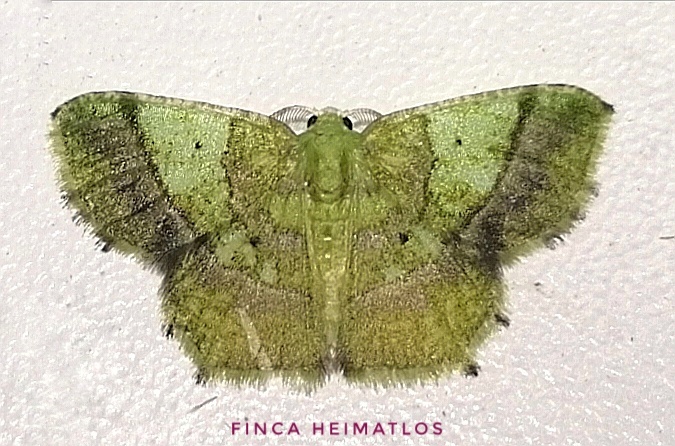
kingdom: Animalia
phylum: Arthropoda
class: Insecta
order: Lepidoptera
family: Geometridae
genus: Neagathia
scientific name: Neagathia corruptata
